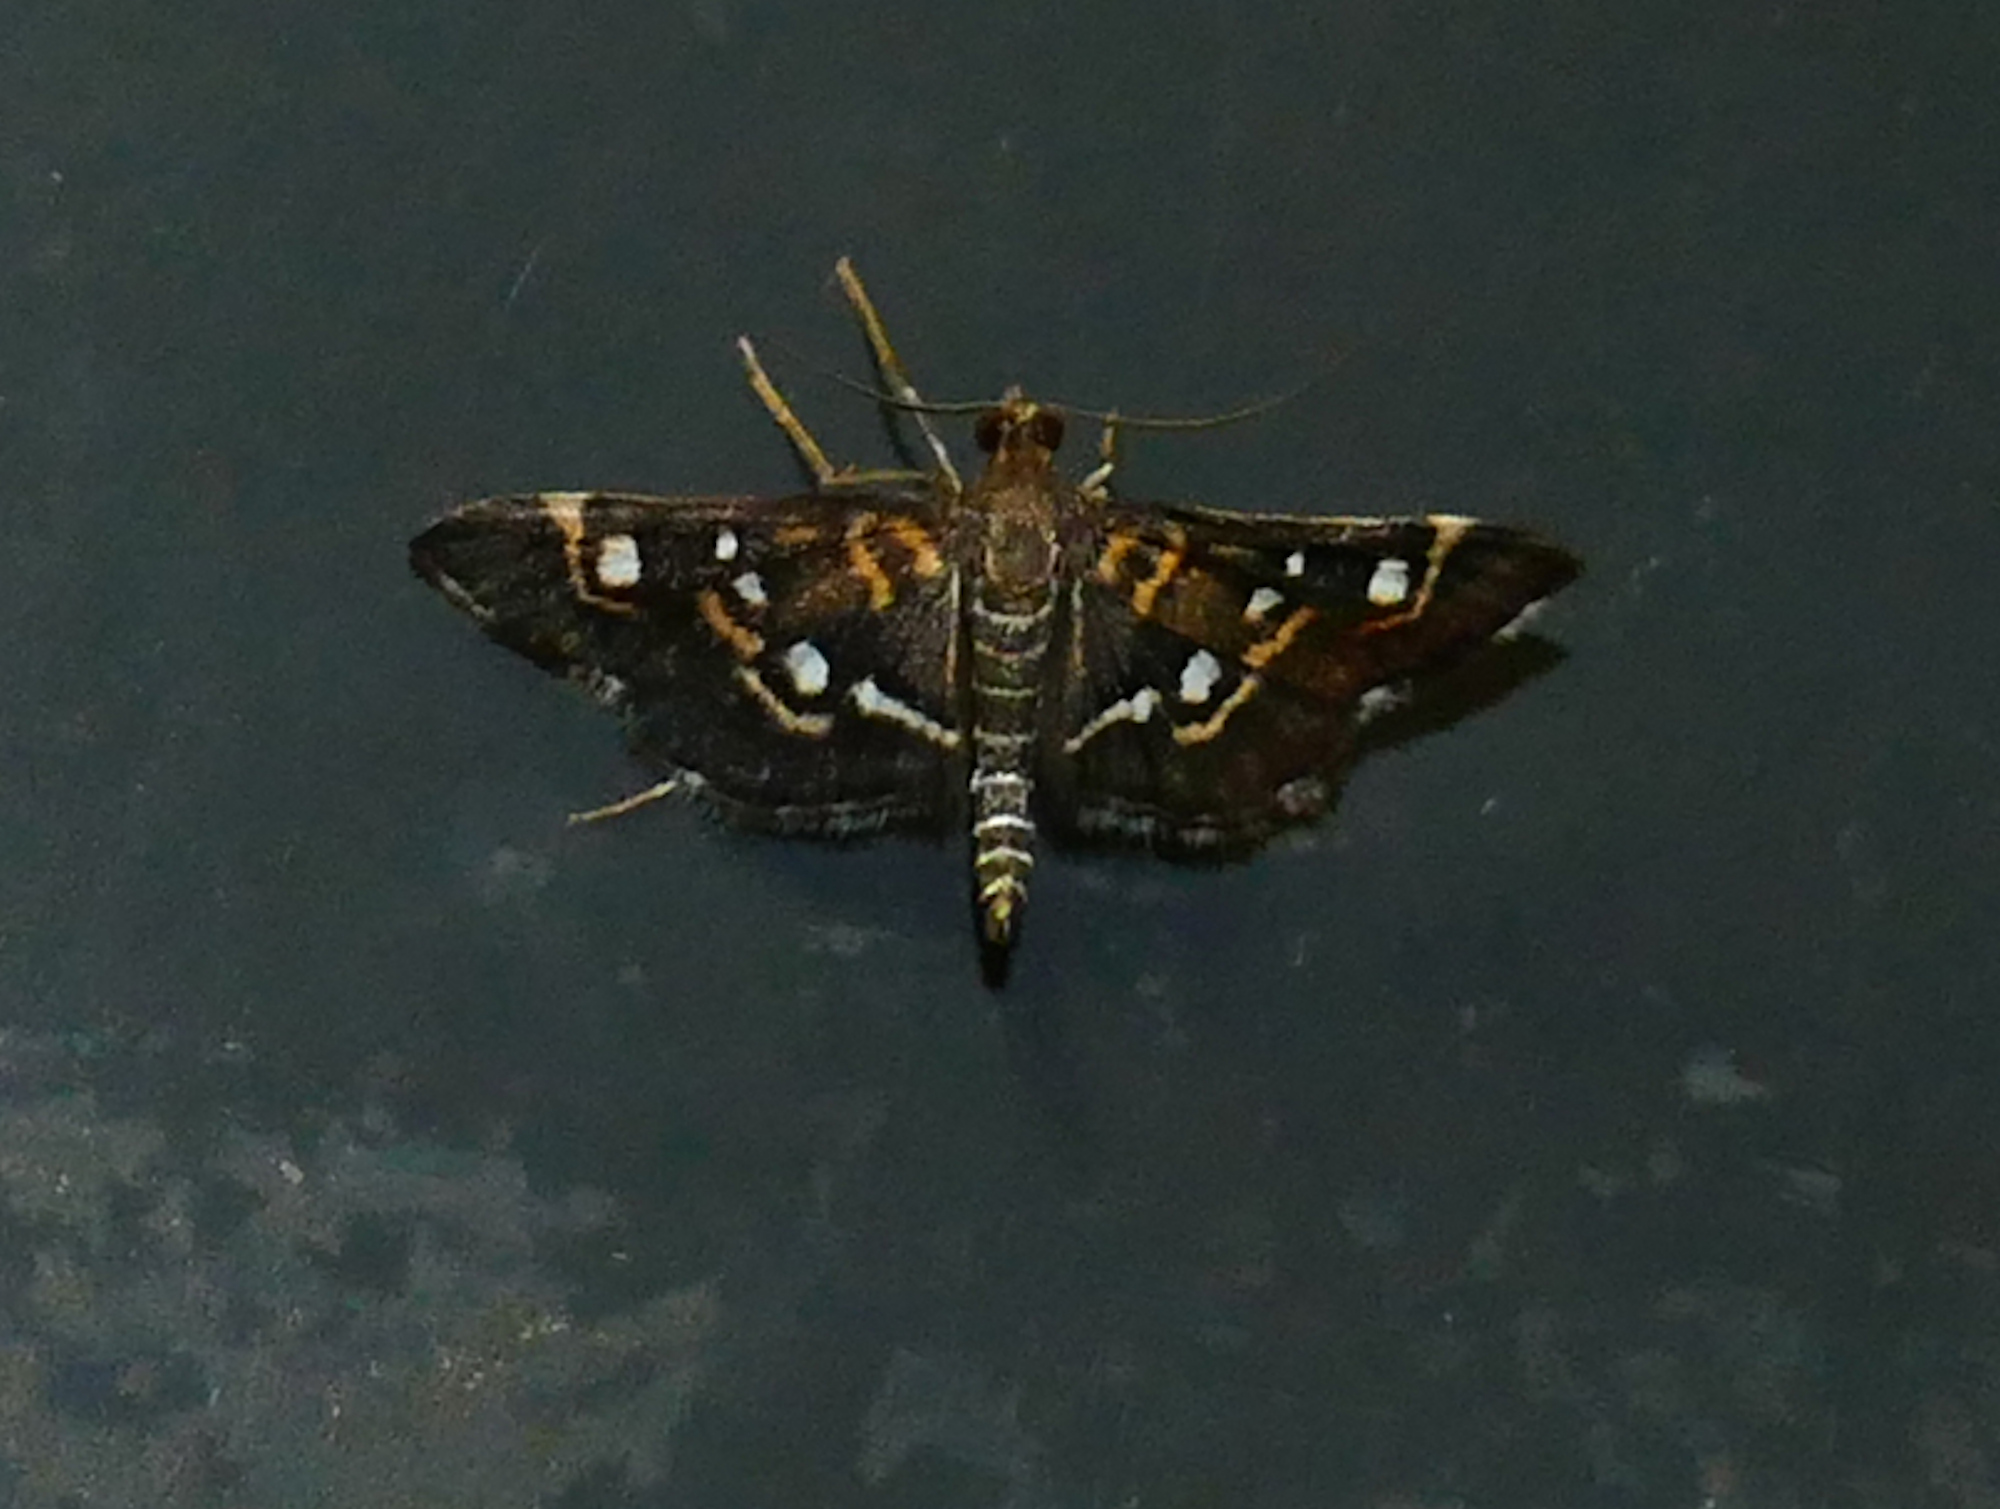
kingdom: Animalia
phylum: Arthropoda
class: Insecta
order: Lepidoptera
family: Crambidae
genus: Diathrausta
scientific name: Diathrausta harlequinalis
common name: Harlequin webworm moth
